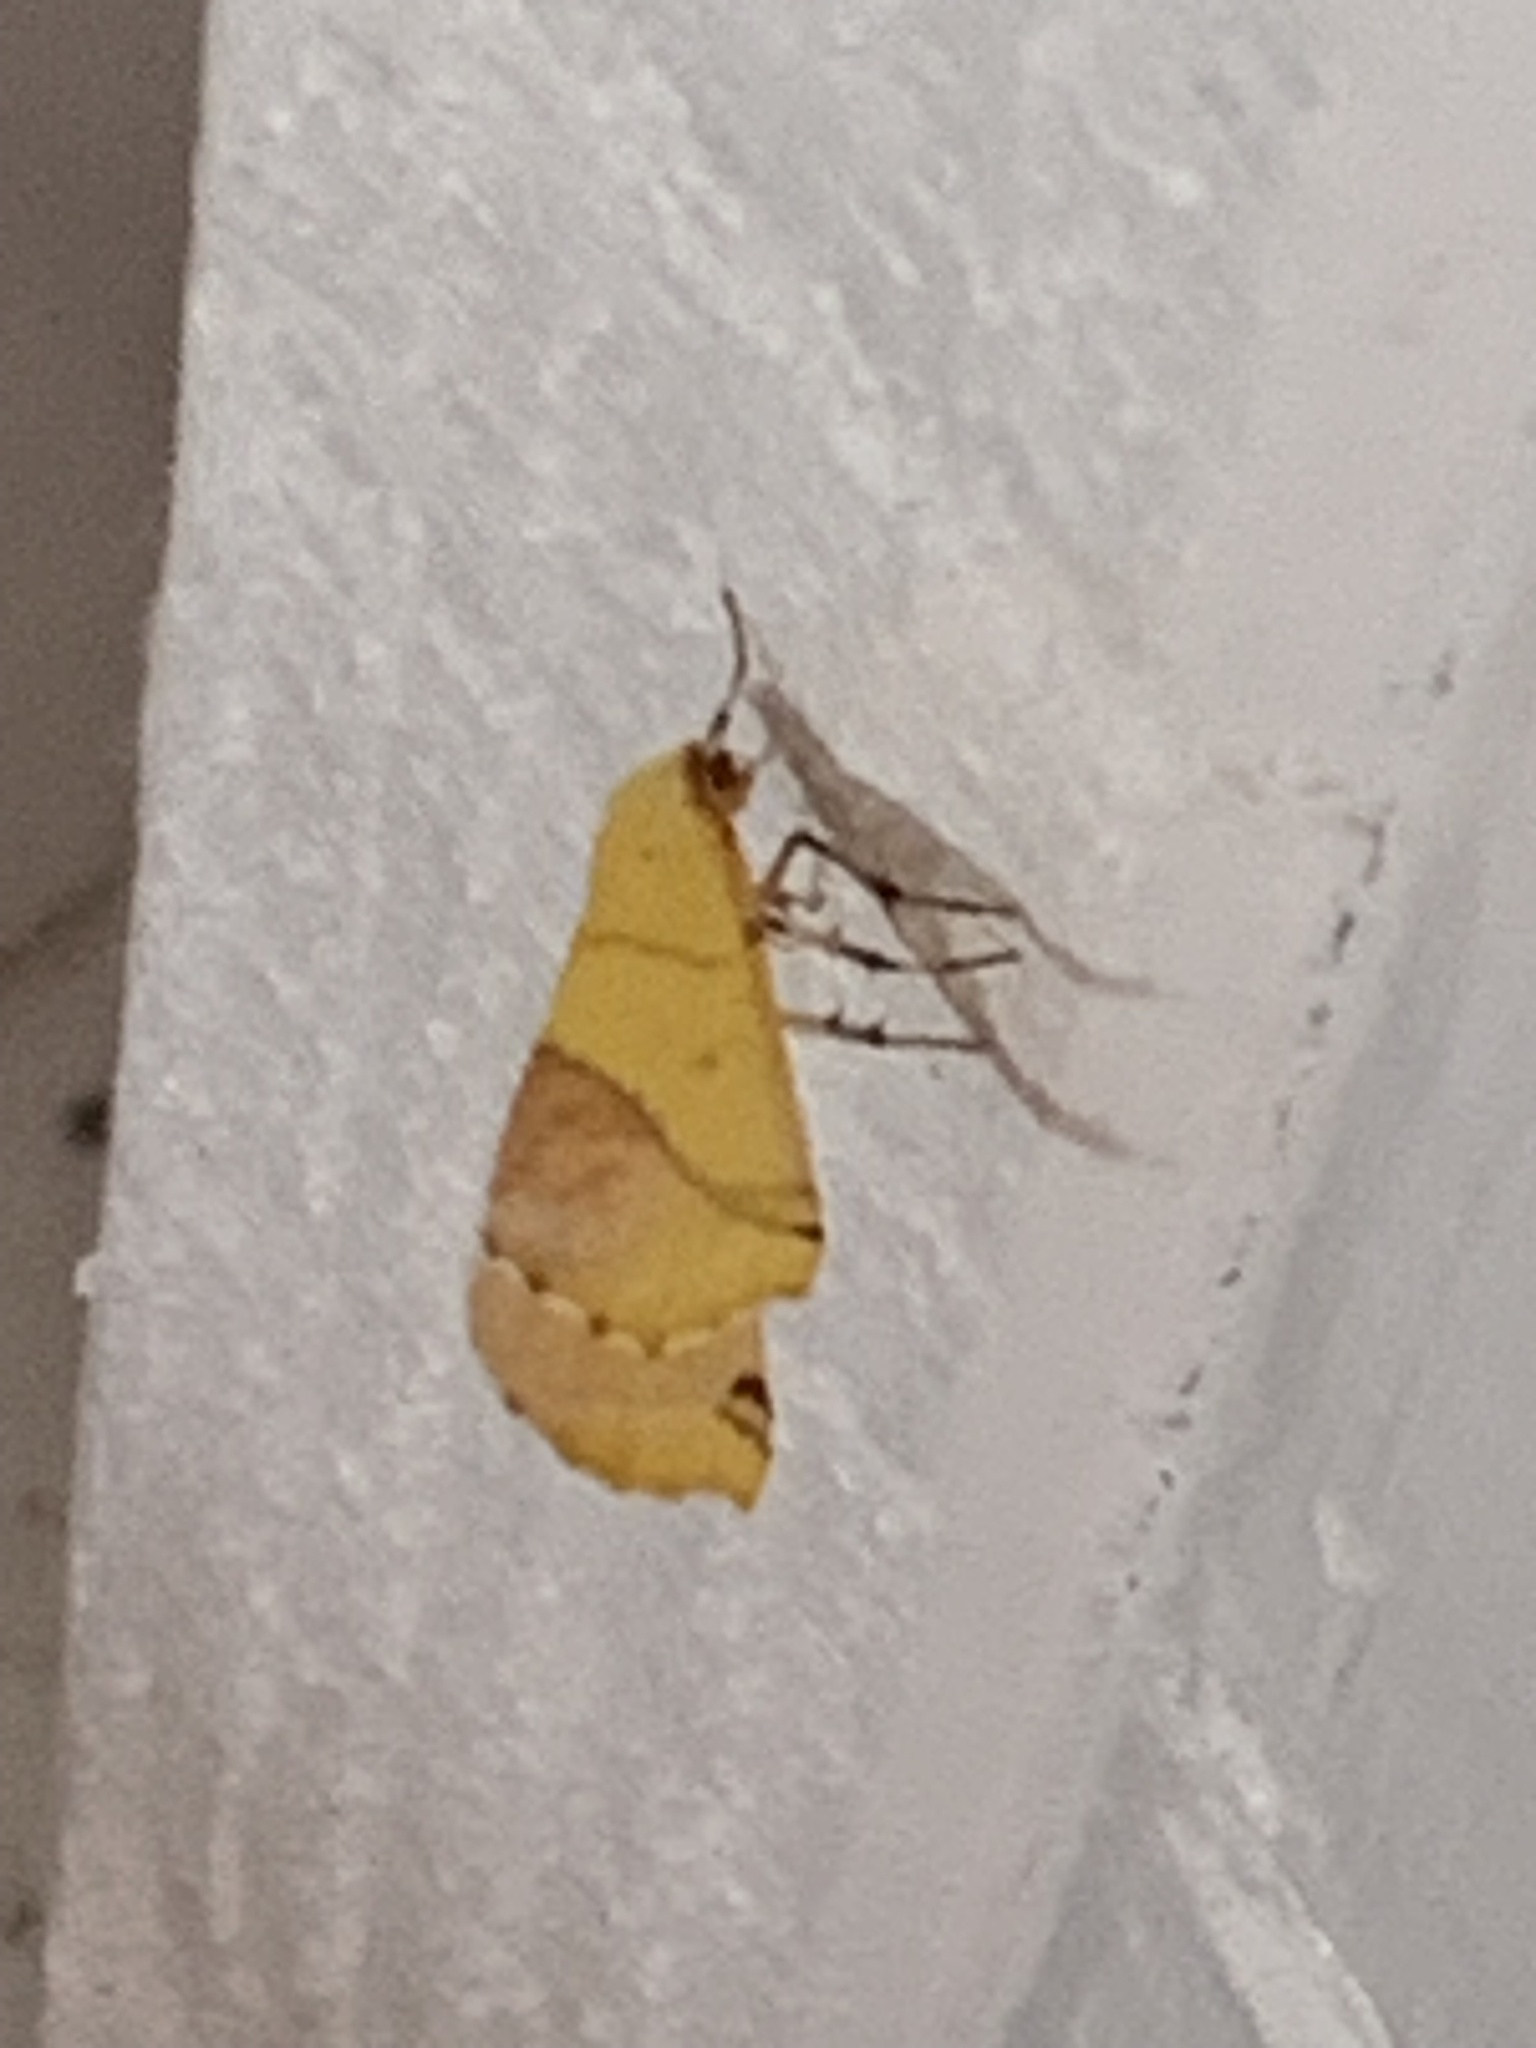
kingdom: Animalia
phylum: Arthropoda
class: Insecta
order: Lepidoptera
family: Geometridae
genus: Sicya
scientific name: Sicya macularia
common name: Sharp-lined yellow
